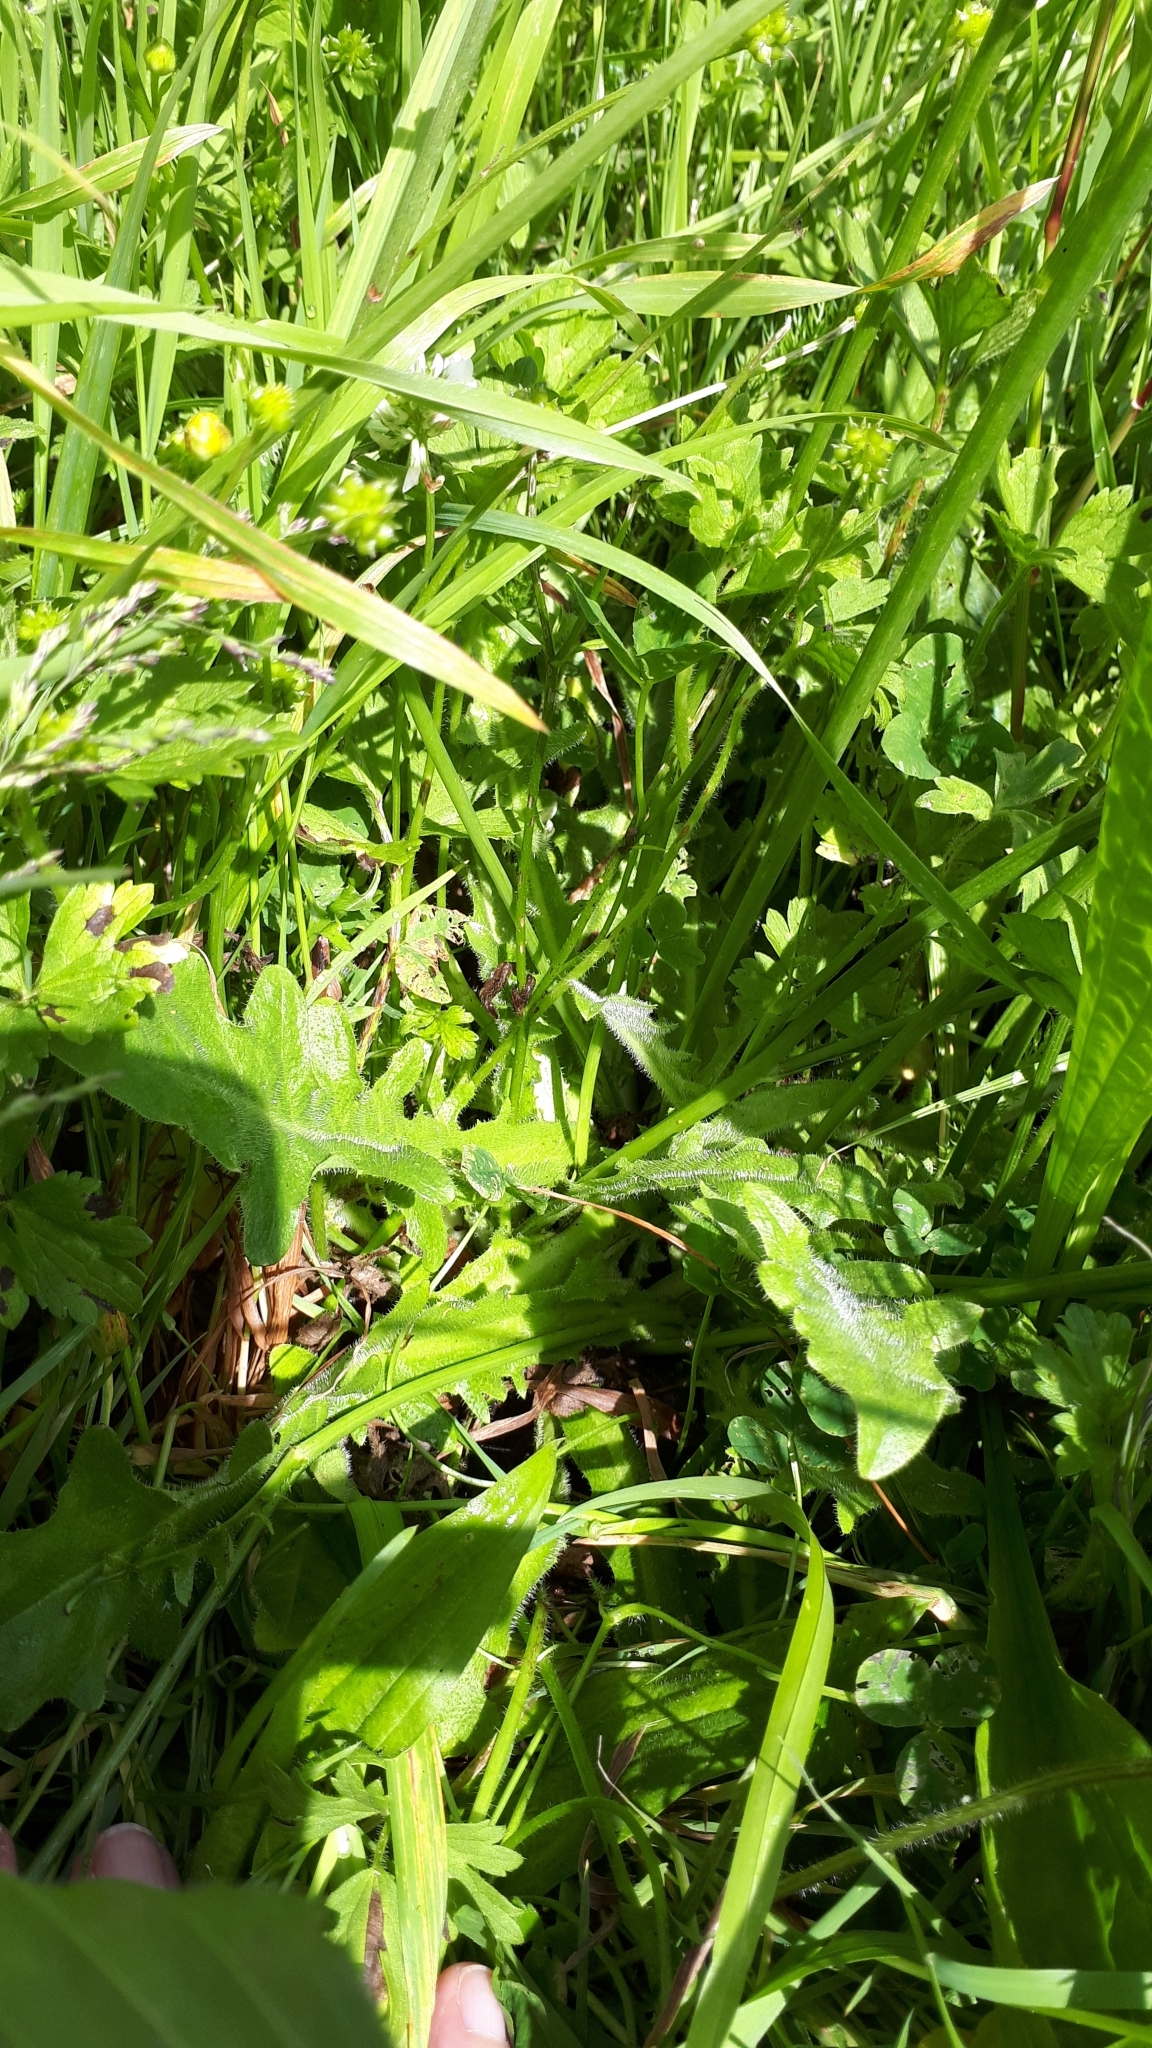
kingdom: Plantae
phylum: Tracheophyta
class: Magnoliopsida
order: Asterales
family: Asteraceae
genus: Hypochaeris
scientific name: Hypochaeris radicata
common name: Flatweed
